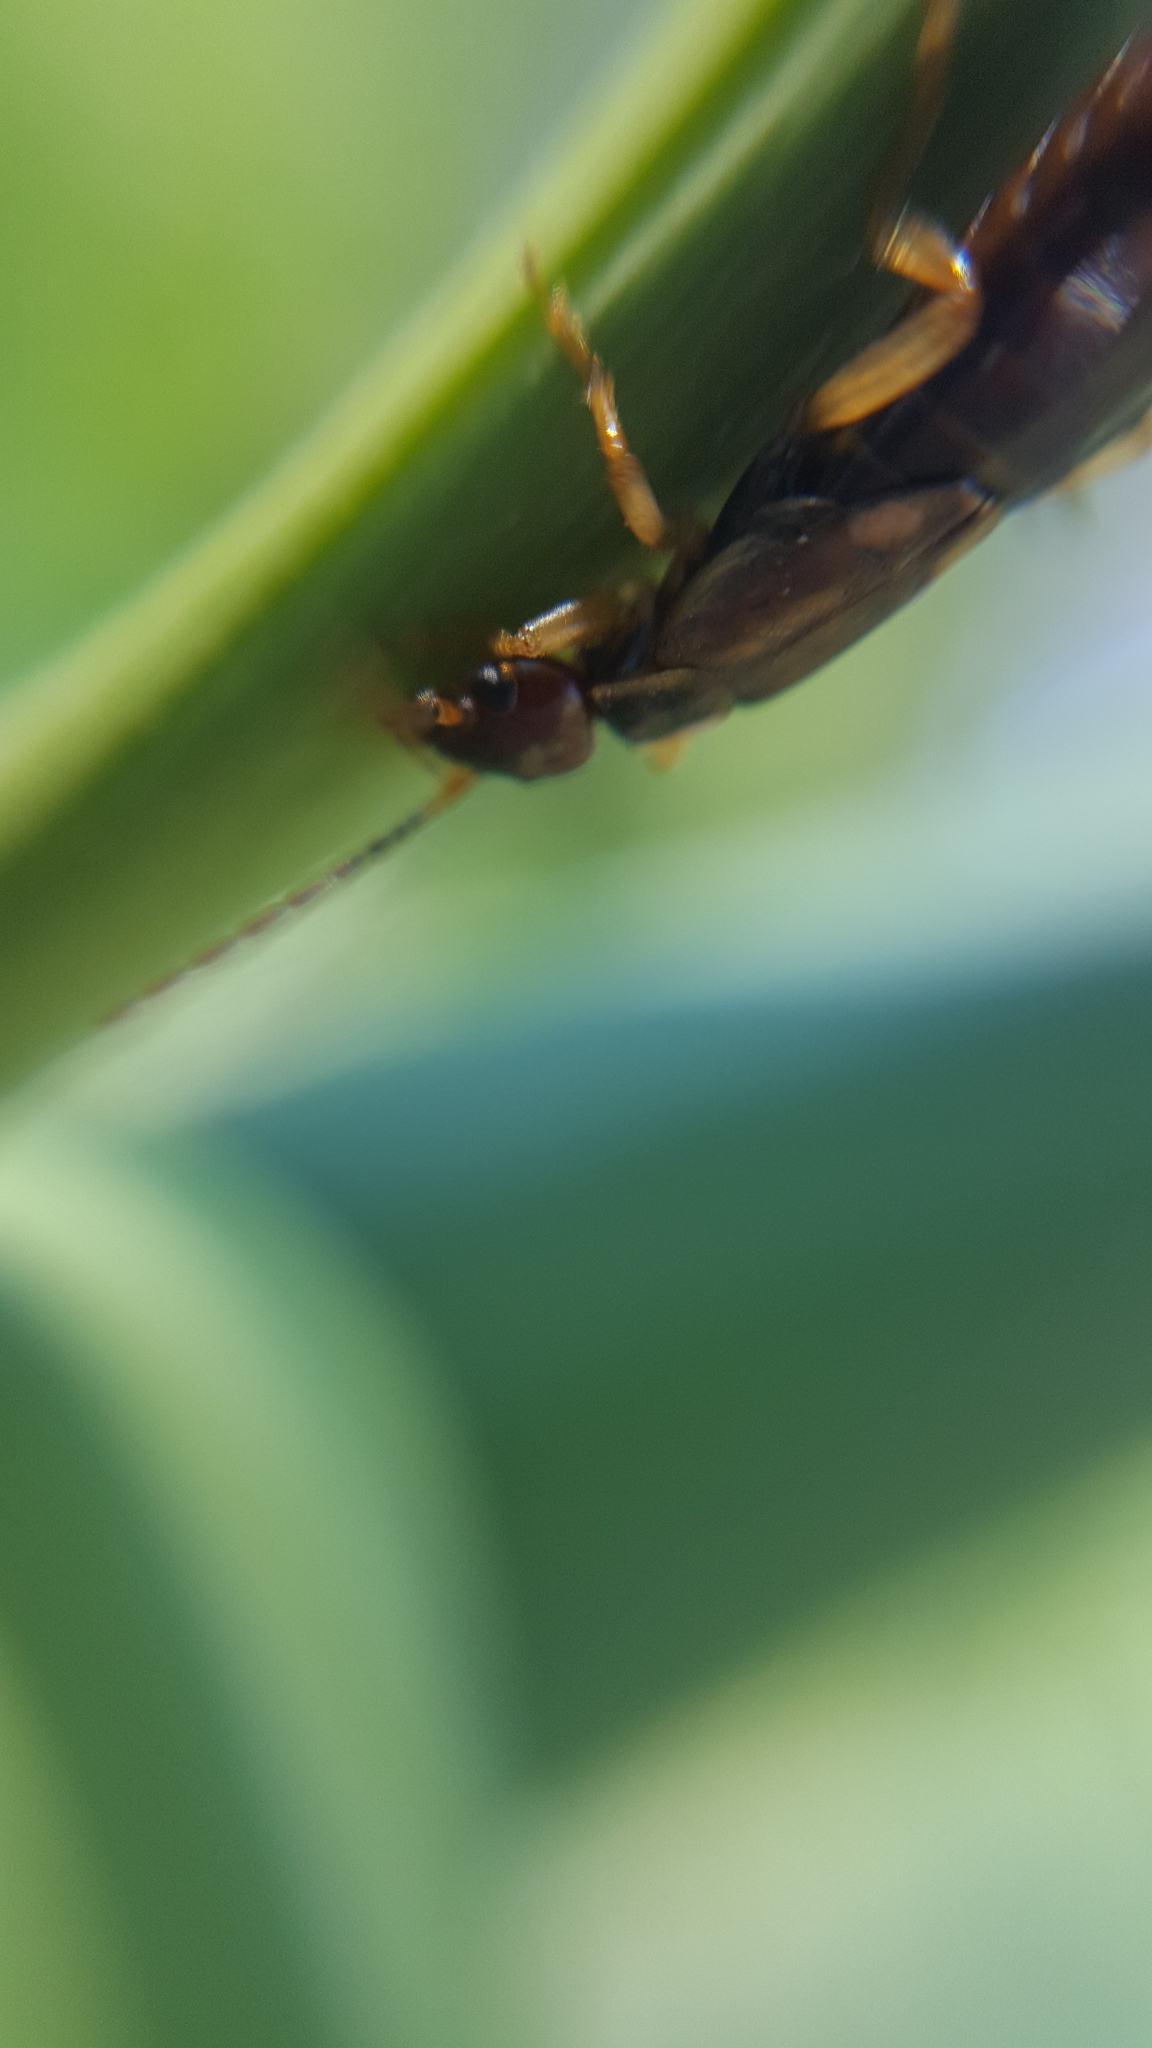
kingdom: Animalia
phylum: Arthropoda
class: Insecta
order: Dermaptera
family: Forficulidae
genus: Forficula
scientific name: Forficula
